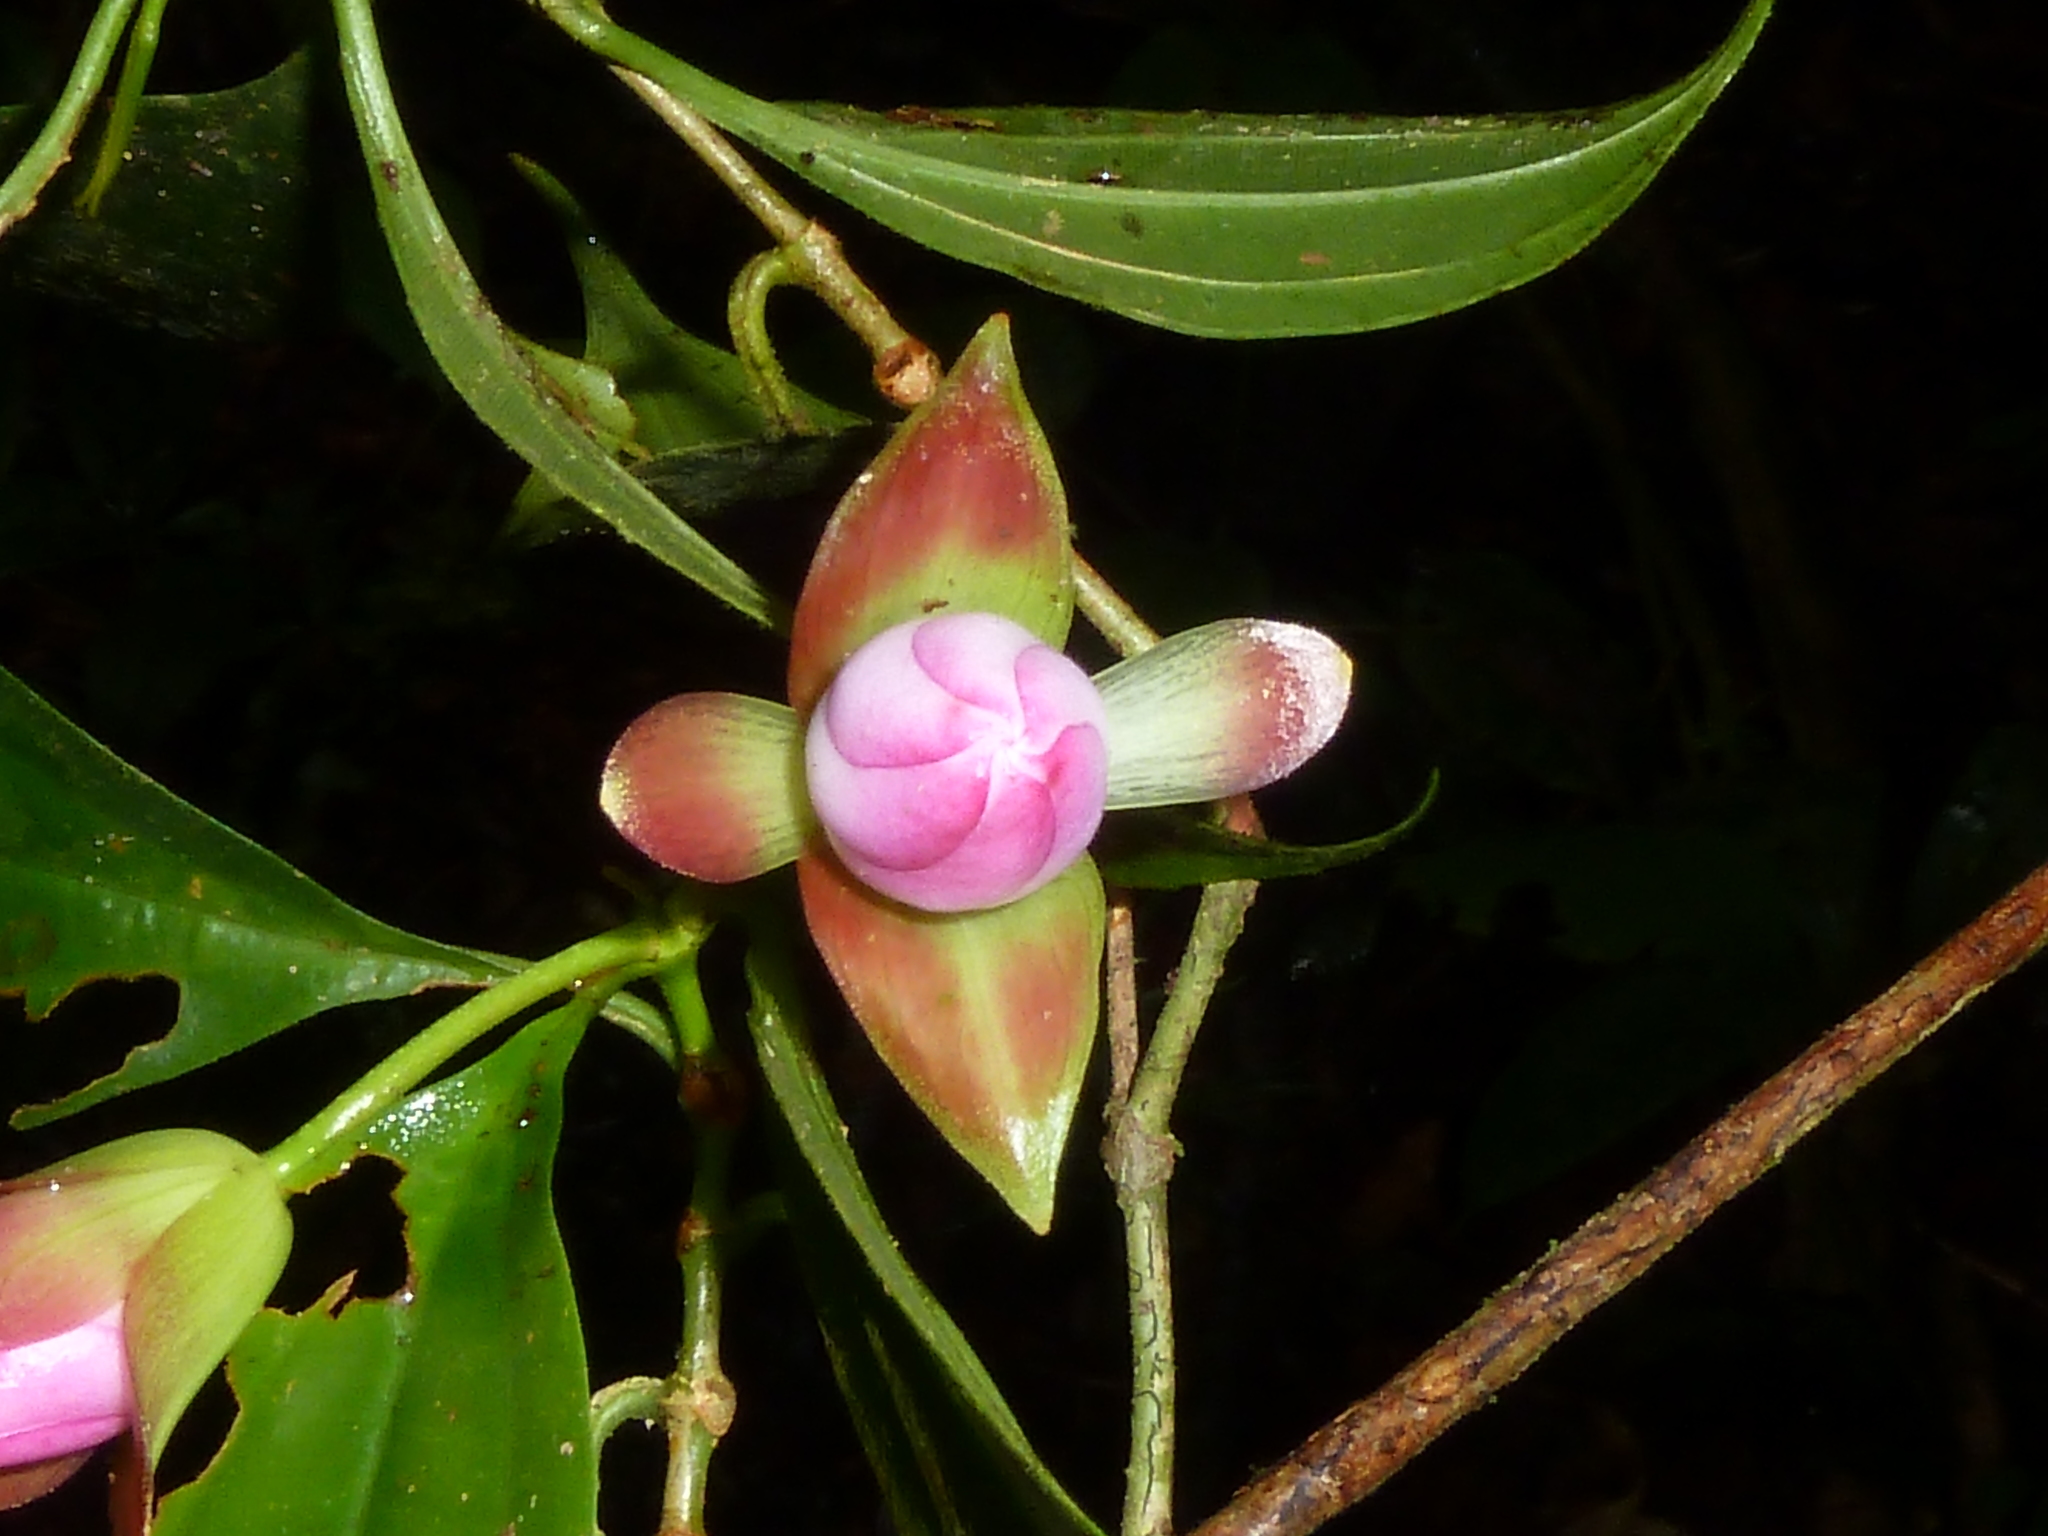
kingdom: Plantae
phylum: Tracheophyta
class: Magnoliopsida
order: Myrtales
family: Melastomataceae
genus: Blakea
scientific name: Blakea litoralis
